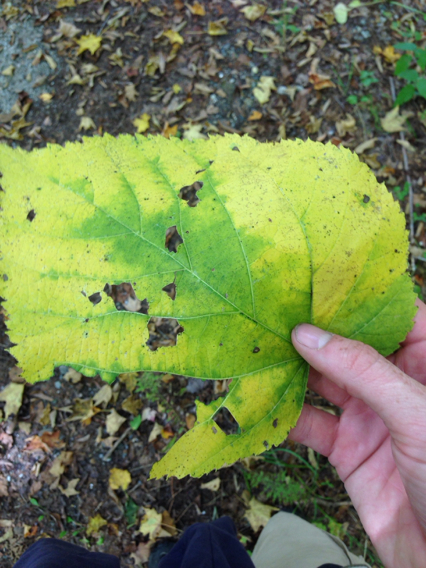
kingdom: Plantae
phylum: Tracheophyta
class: Magnoliopsida
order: Malvales
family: Malvaceae
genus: Tilia
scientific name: Tilia americana
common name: Basswood
